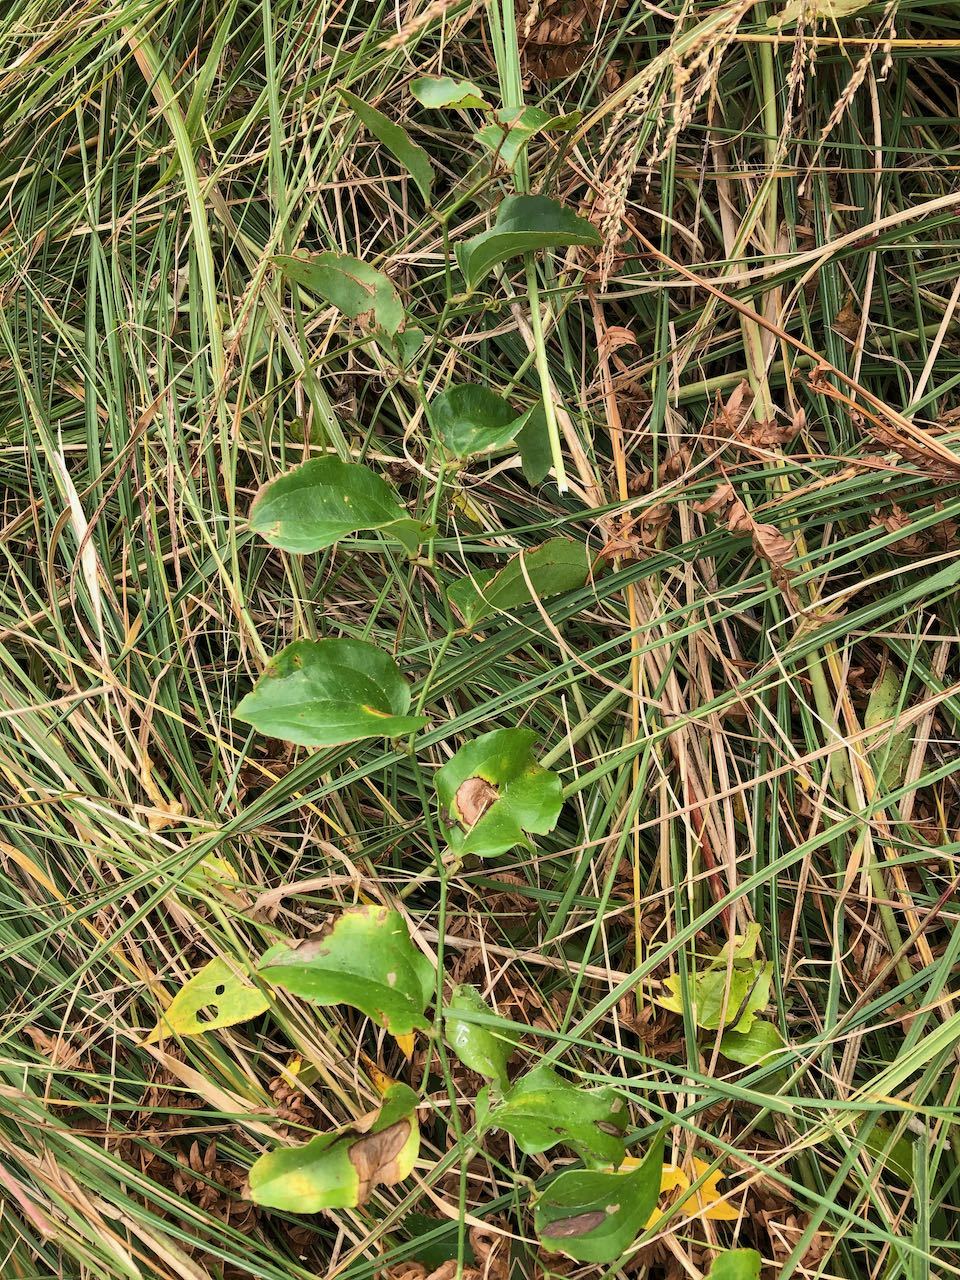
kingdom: Plantae
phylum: Tracheophyta
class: Liliopsida
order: Liliales
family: Smilacaceae
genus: Smilax
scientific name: Smilax china
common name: Chinaroot
